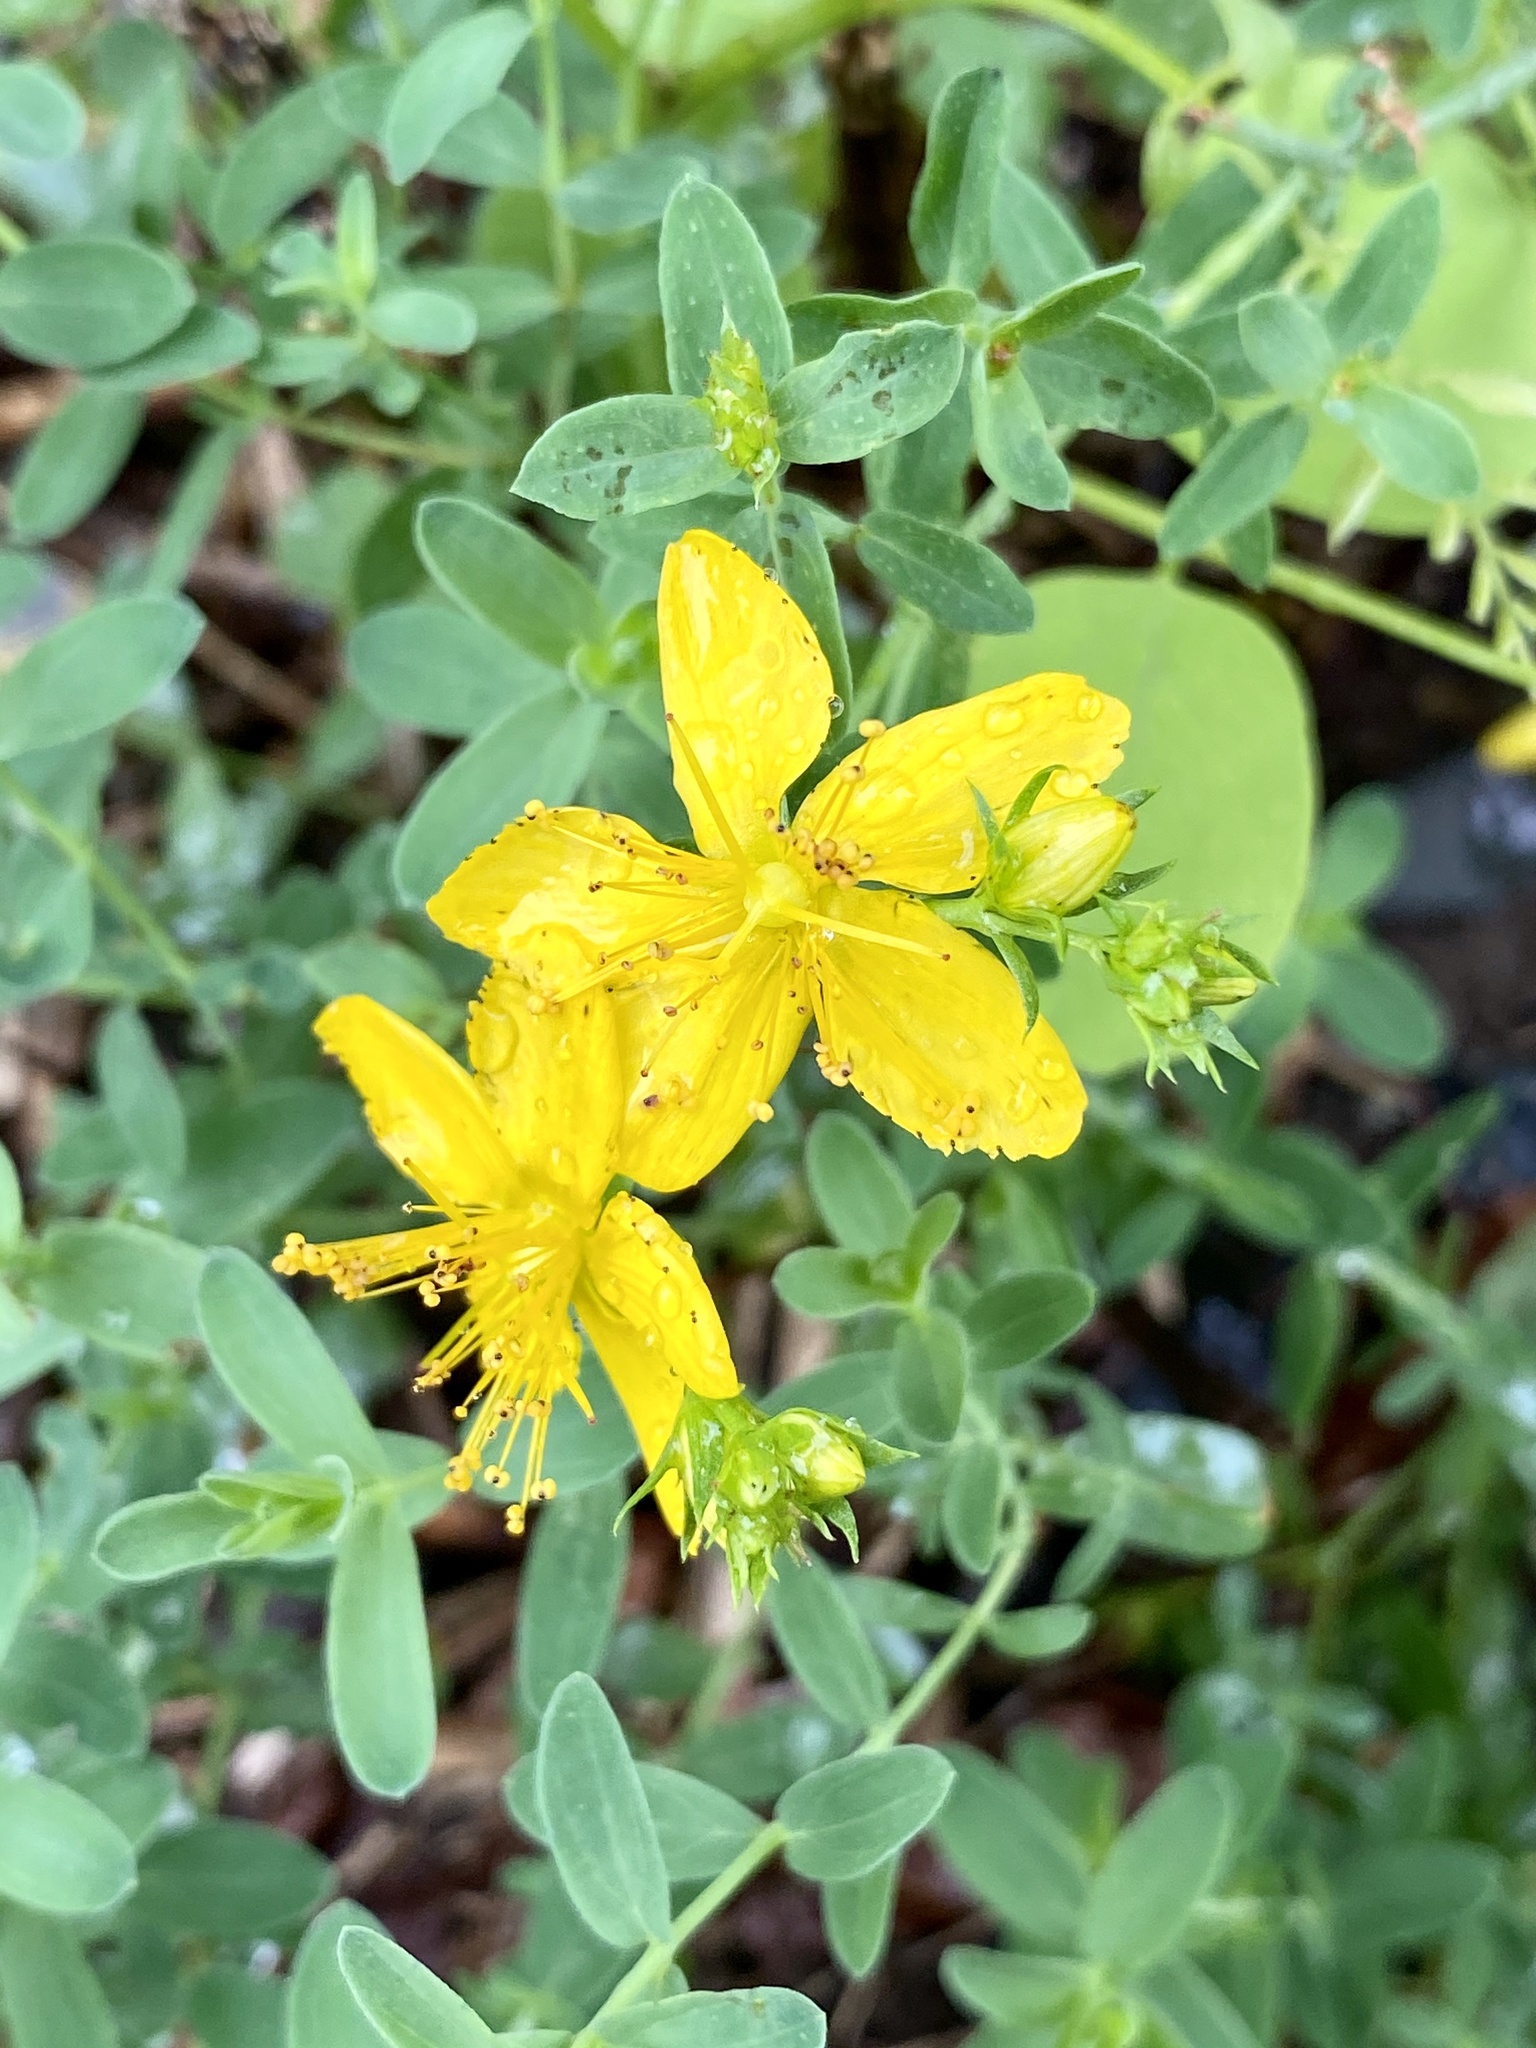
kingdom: Plantae
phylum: Tracheophyta
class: Magnoliopsida
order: Malpighiales
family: Hypericaceae
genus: Hypericum
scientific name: Hypericum perforatum
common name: Common st. johnswort
